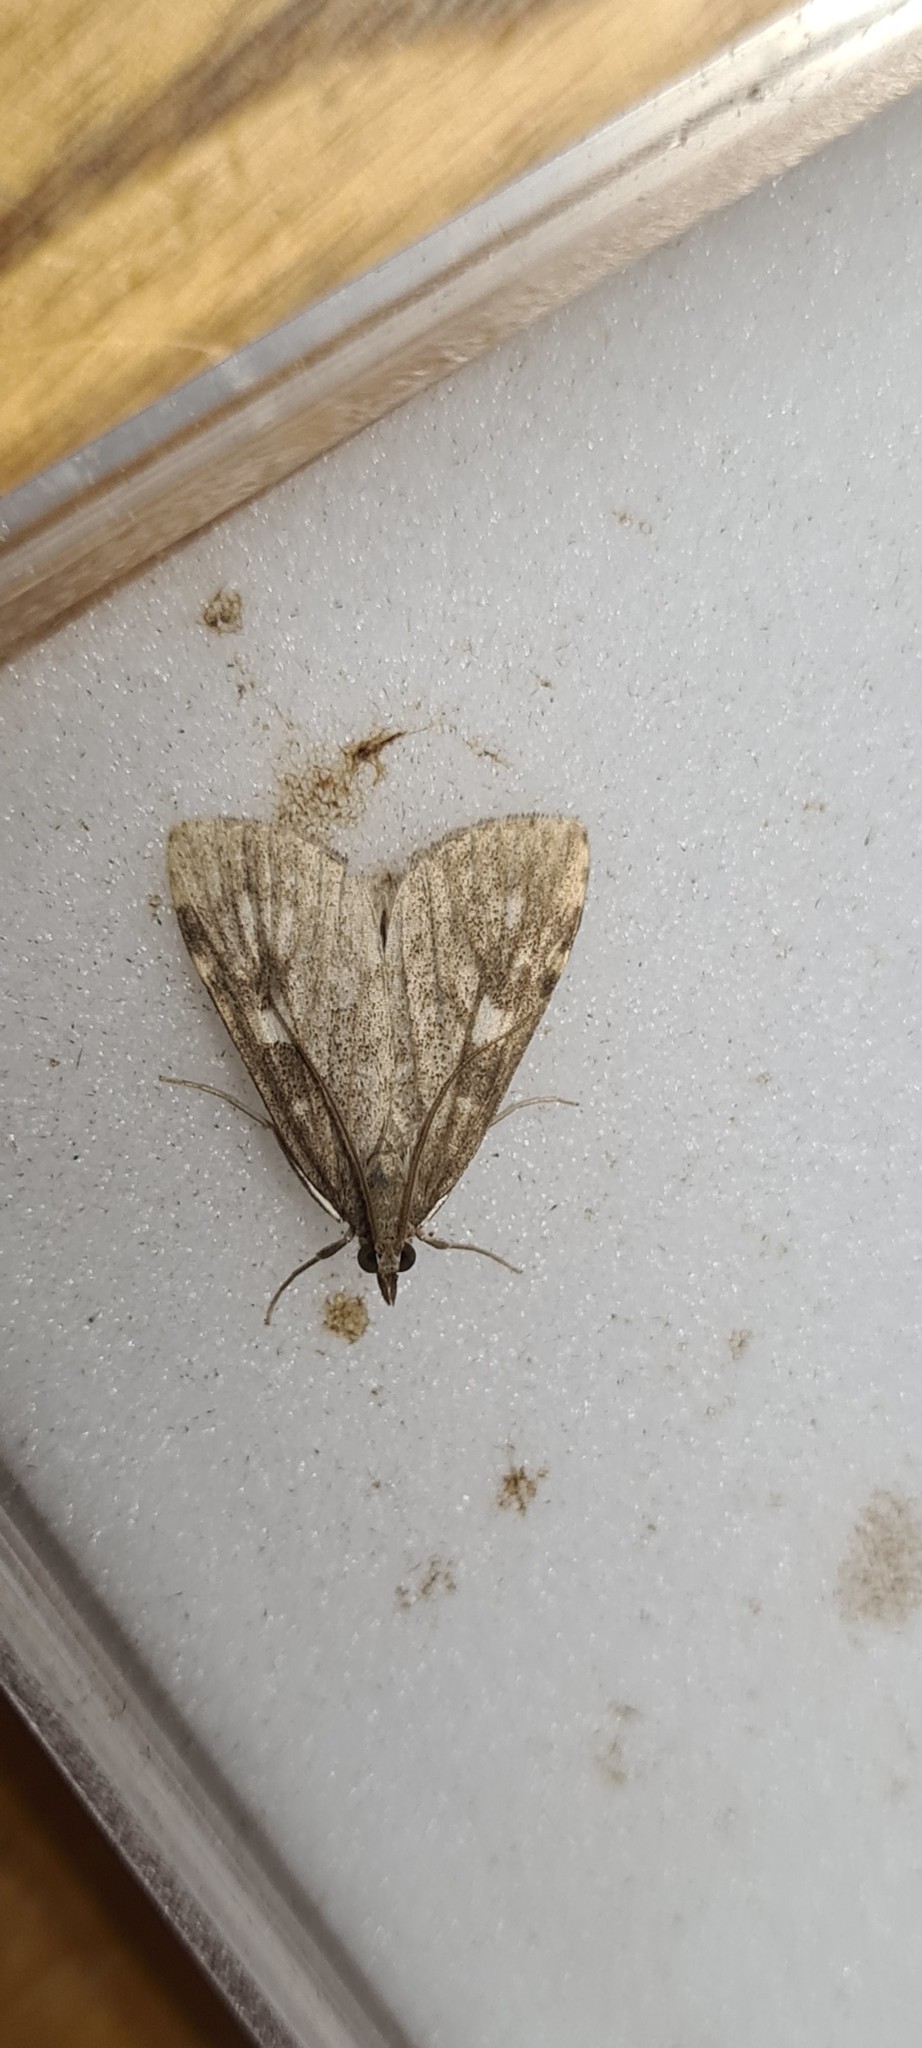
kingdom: Animalia
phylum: Arthropoda
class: Insecta
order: Lepidoptera
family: Crambidae
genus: Udea
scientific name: Udea olivalis
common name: Olive pearl
